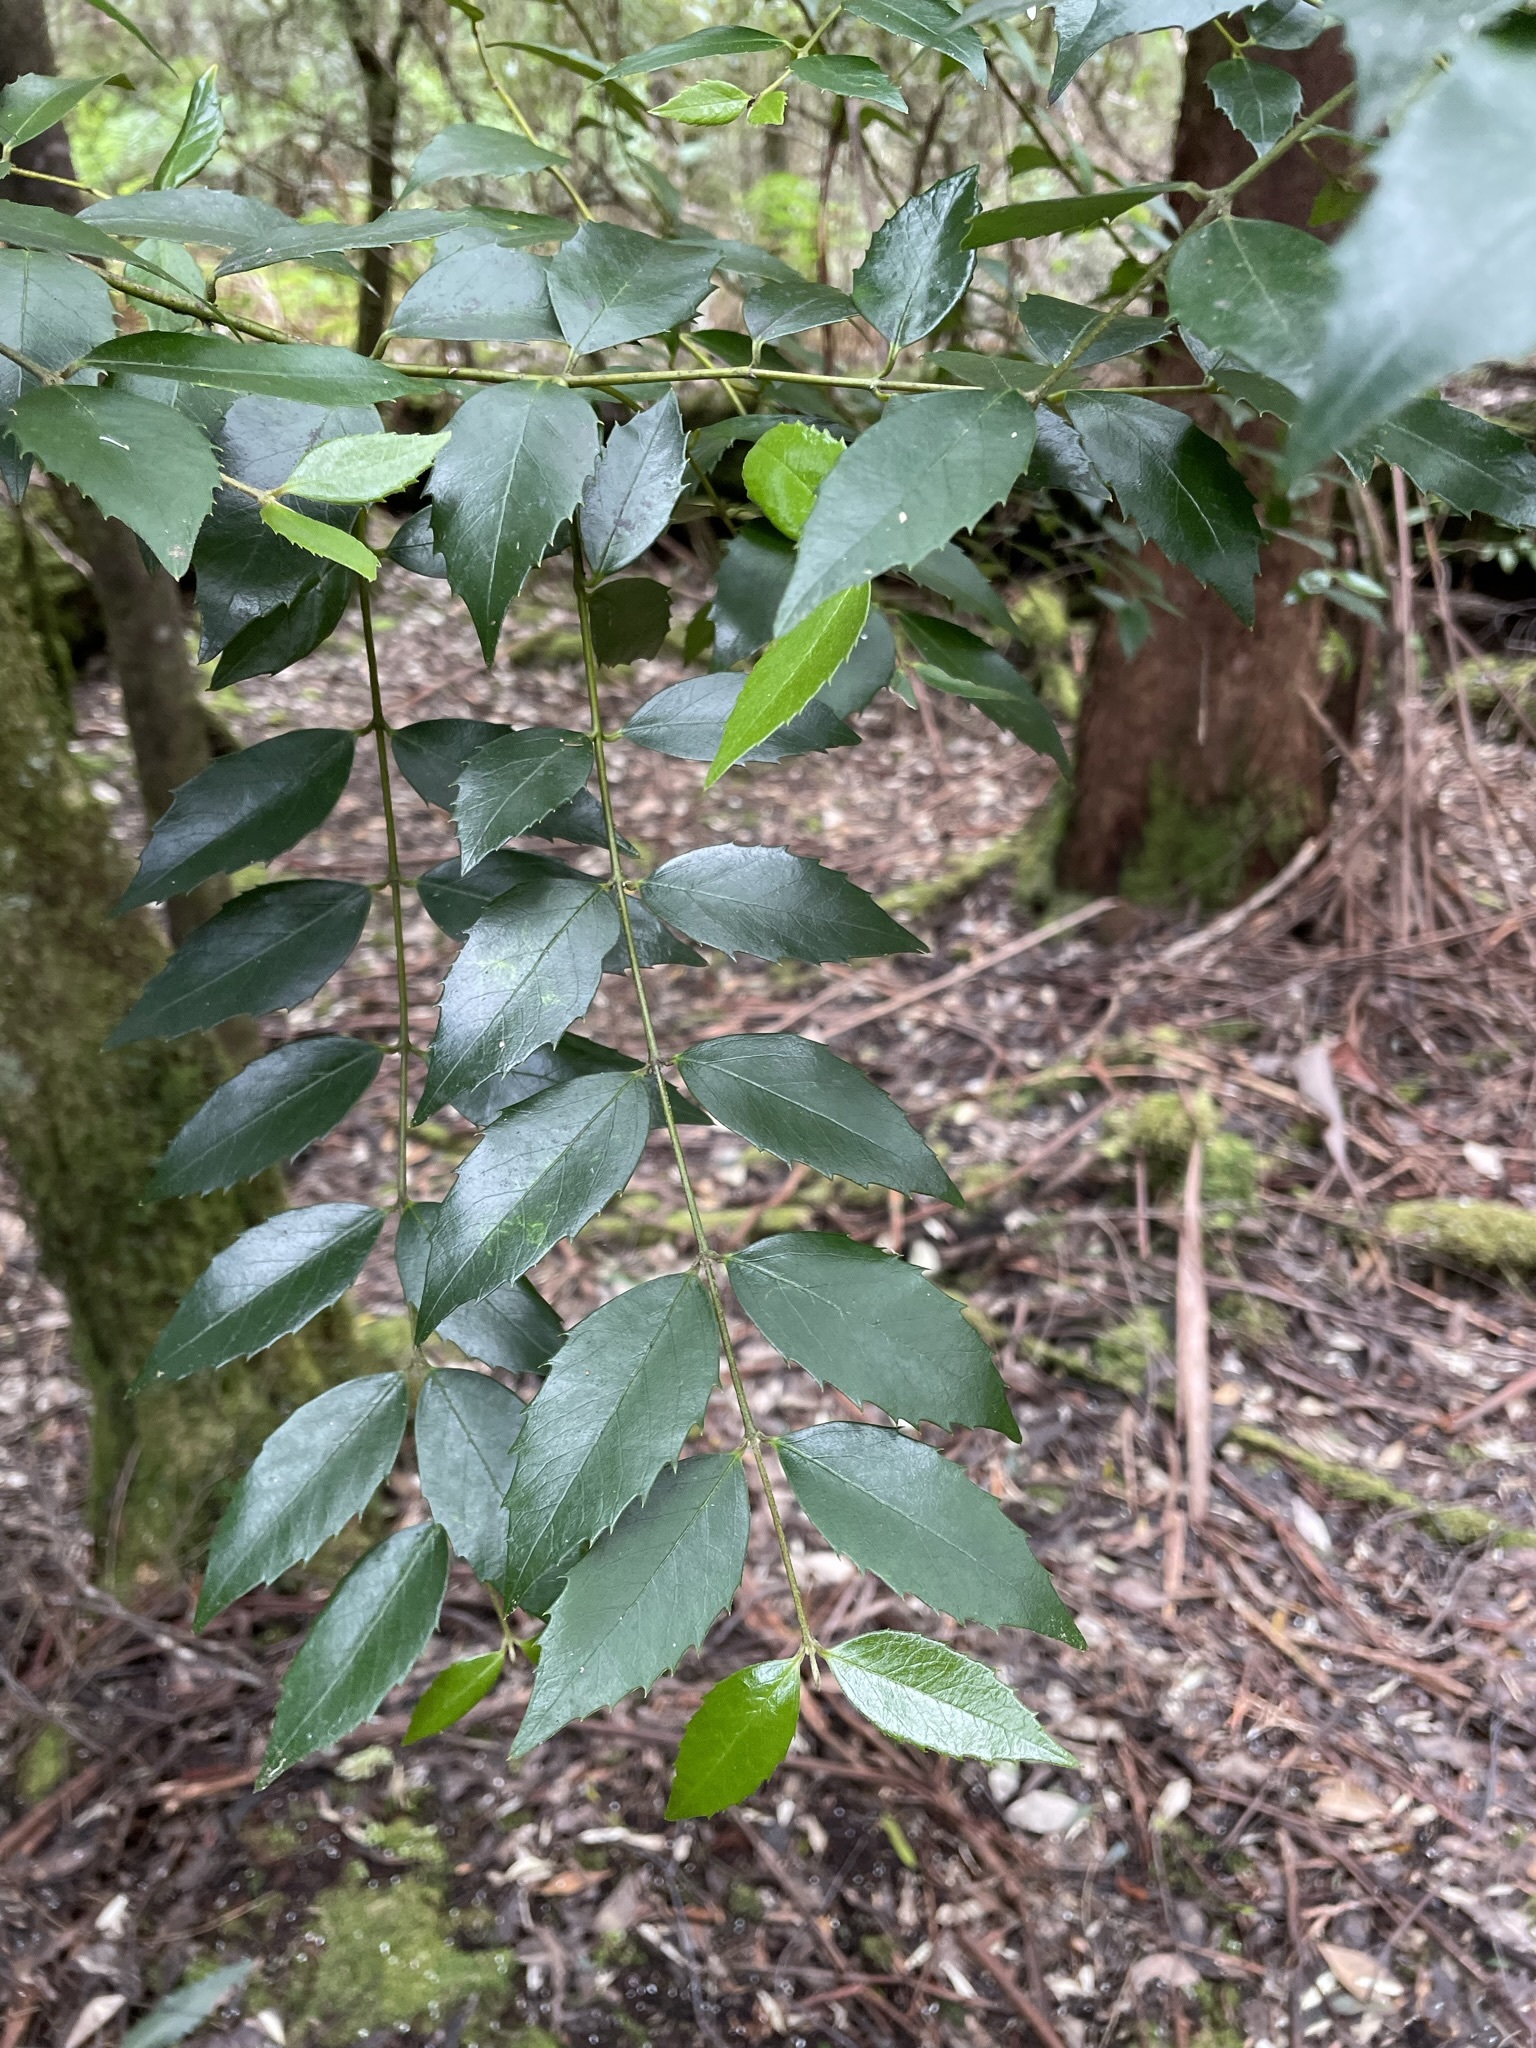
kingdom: Plantae
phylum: Tracheophyta
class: Magnoliopsida
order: Laurales
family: Atherospermataceae
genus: Atherosperma
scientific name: Atherosperma moschatum
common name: Tasmanian-sassafras
